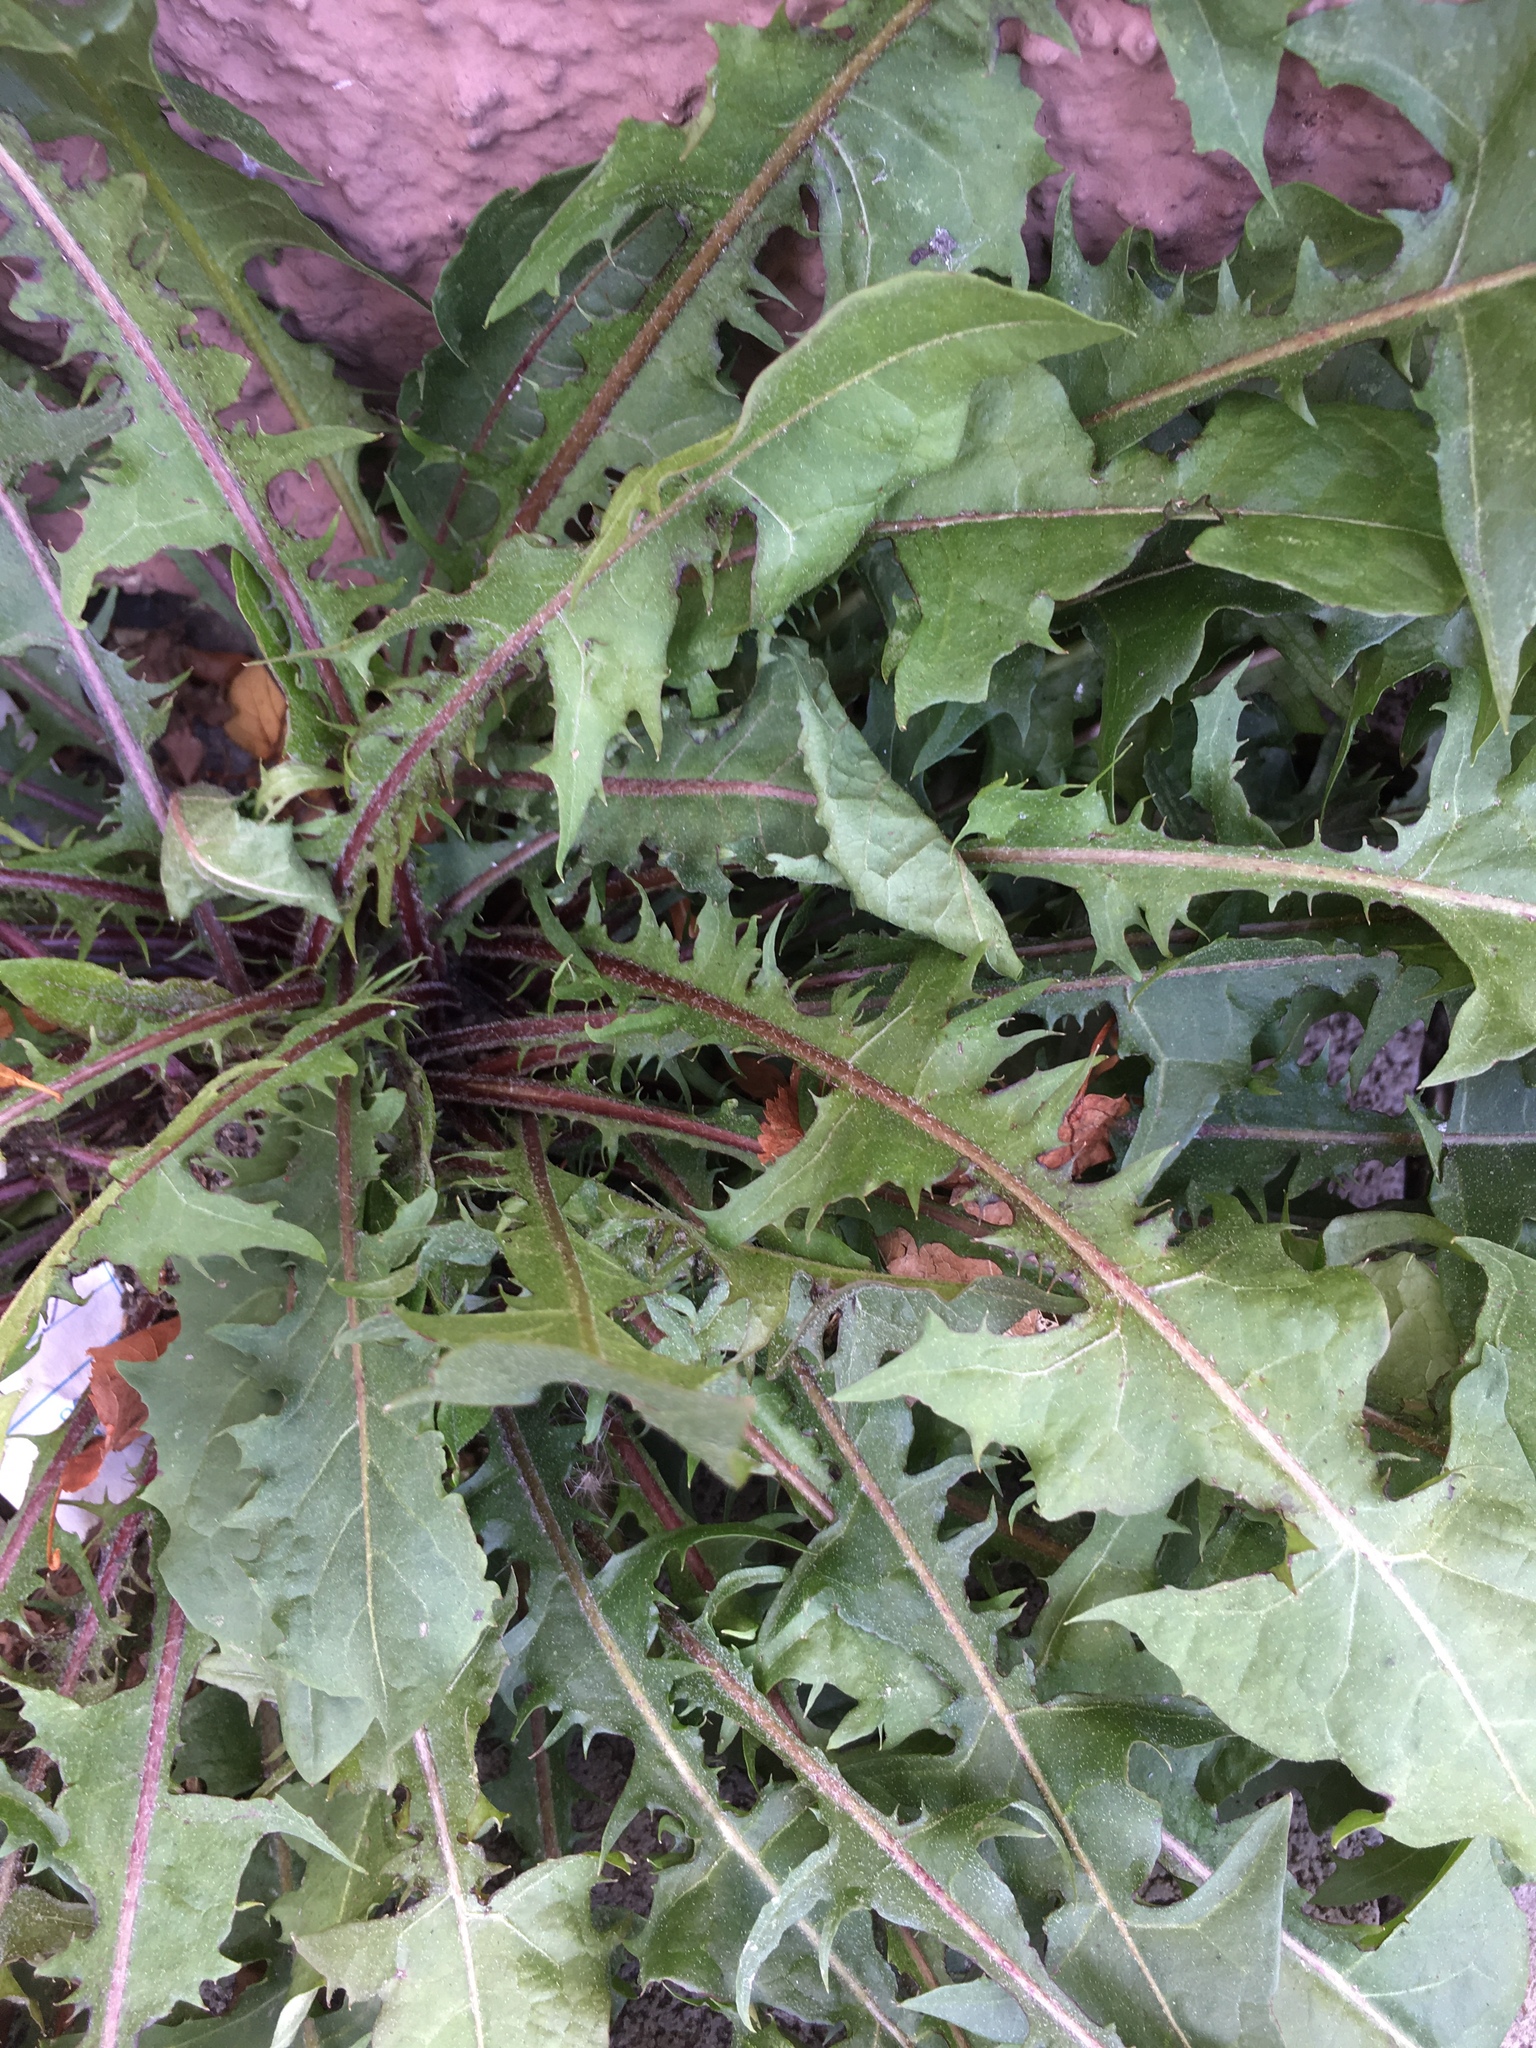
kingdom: Plantae
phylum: Tracheophyta
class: Magnoliopsida
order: Asterales
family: Asteraceae
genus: Taraxacum
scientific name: Taraxacum officinale
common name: Common dandelion
